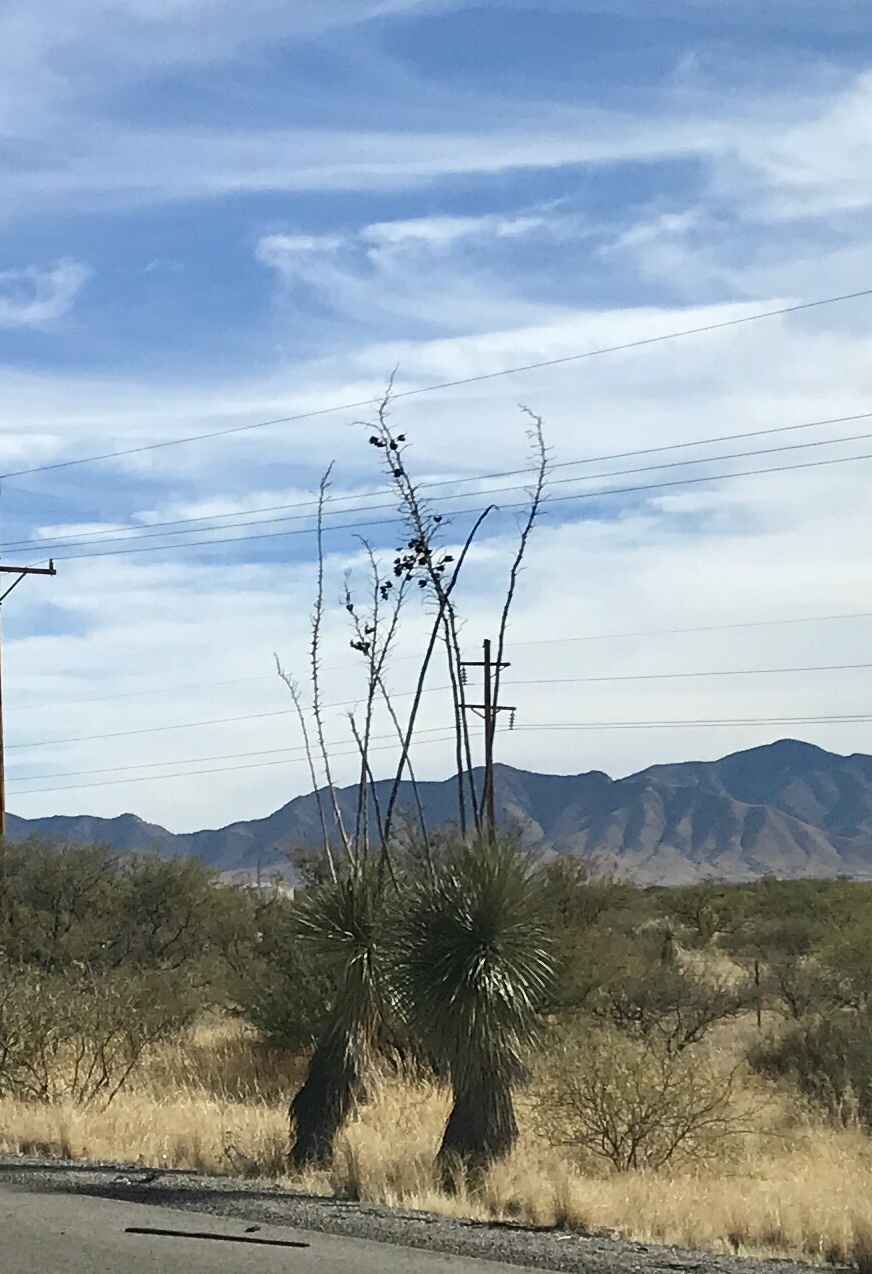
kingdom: Plantae
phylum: Tracheophyta
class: Liliopsida
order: Asparagales
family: Asparagaceae
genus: Yucca
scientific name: Yucca elata
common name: Palmella
